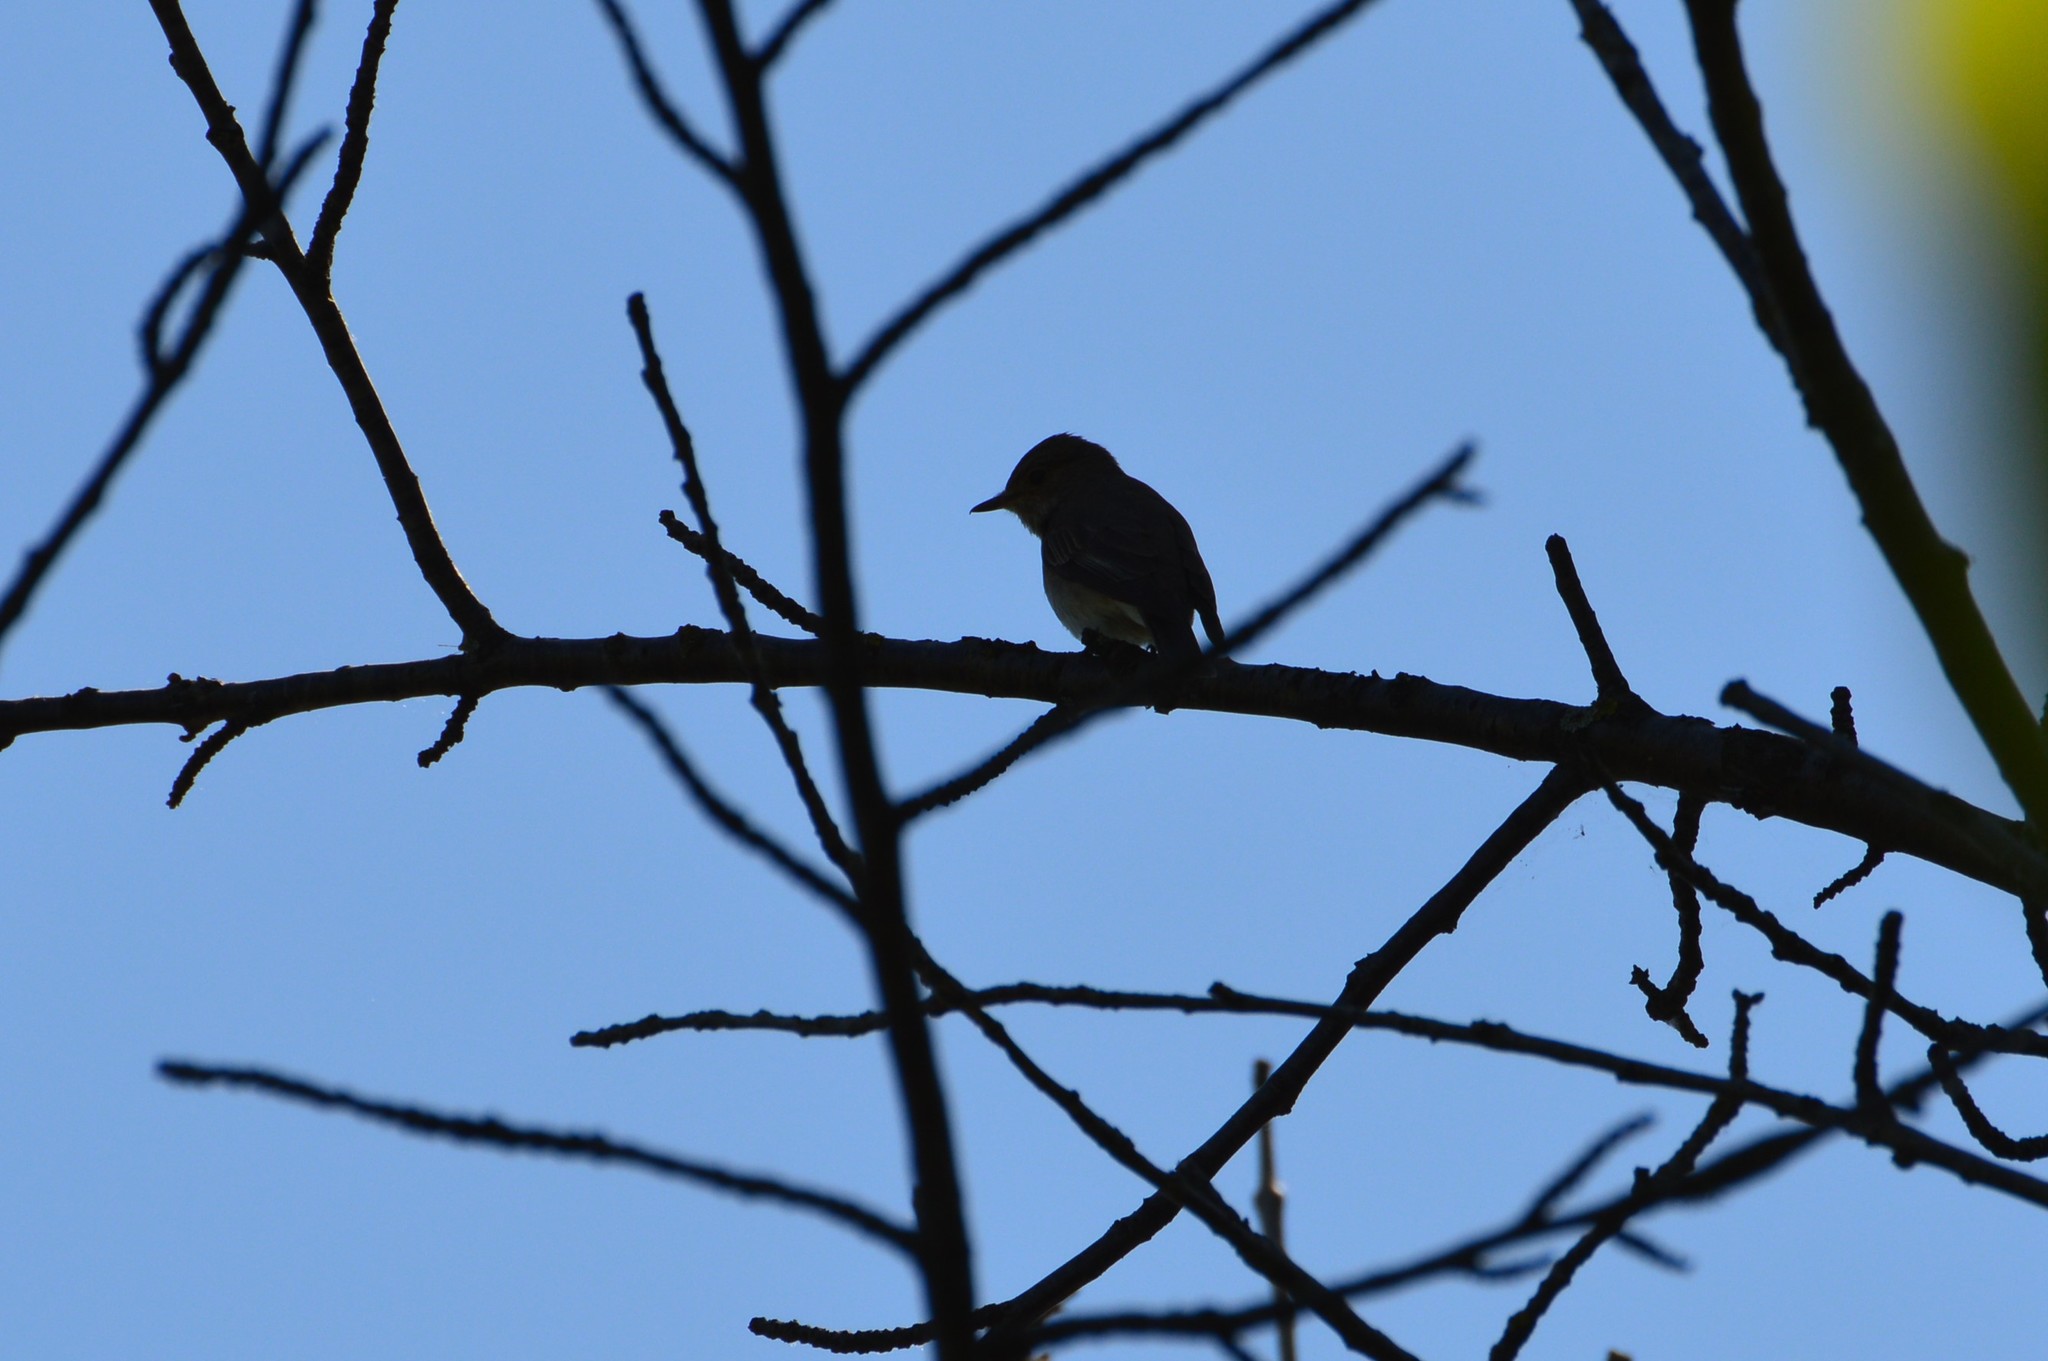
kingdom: Animalia
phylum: Chordata
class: Aves
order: Passeriformes
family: Muscicapidae
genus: Muscicapa
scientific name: Muscicapa striata
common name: Spotted flycatcher
